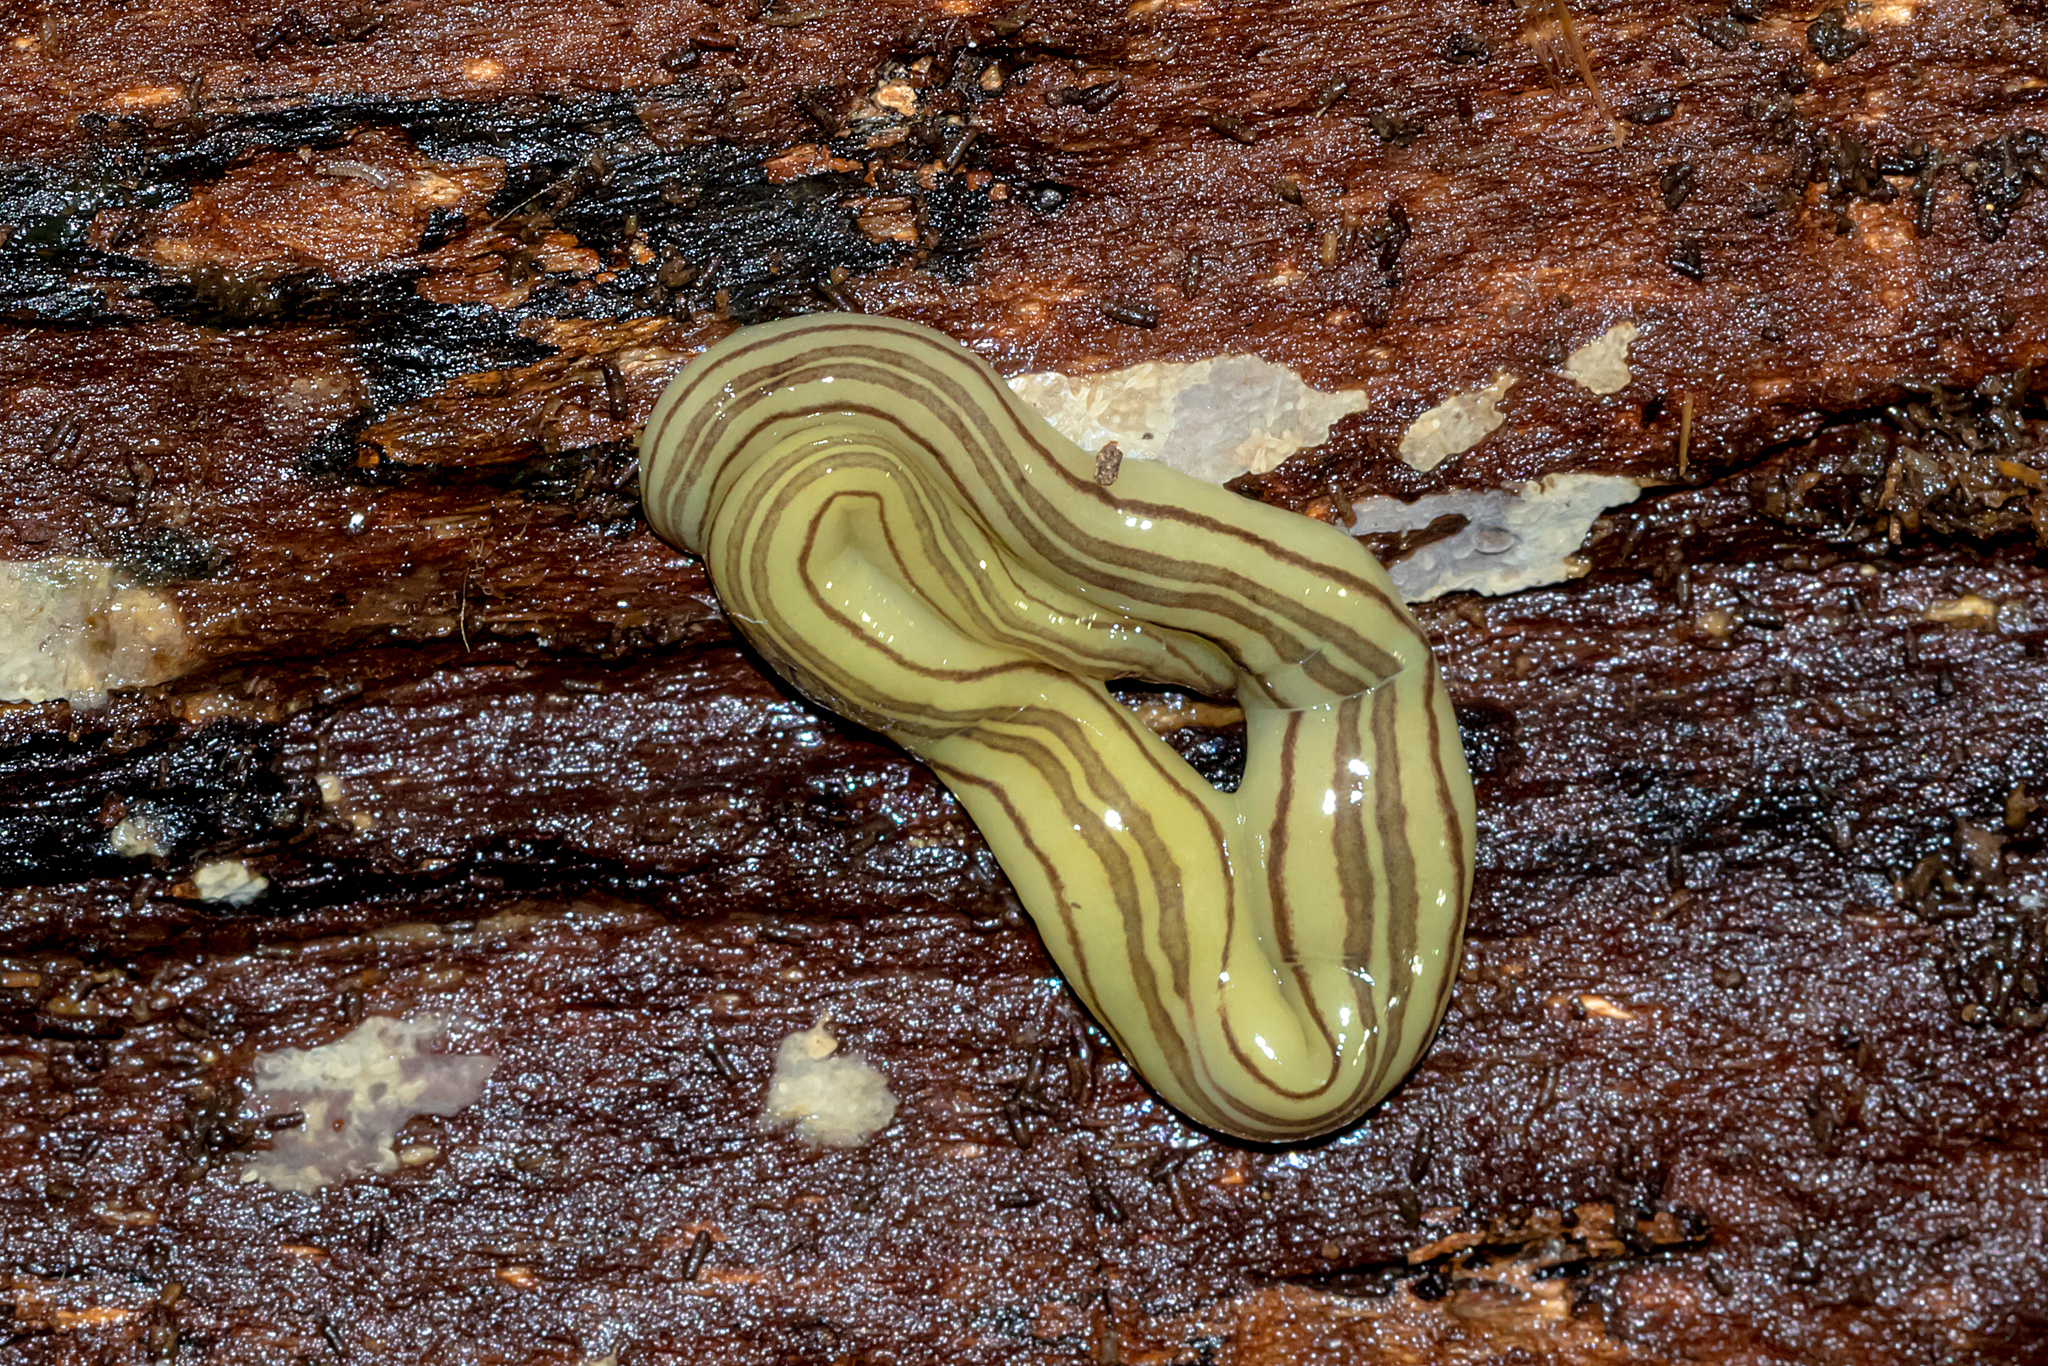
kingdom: Animalia
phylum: Platyhelminthes
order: Tricladida
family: Geoplanidae
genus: Caenoplana
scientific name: Caenoplana hoggii
